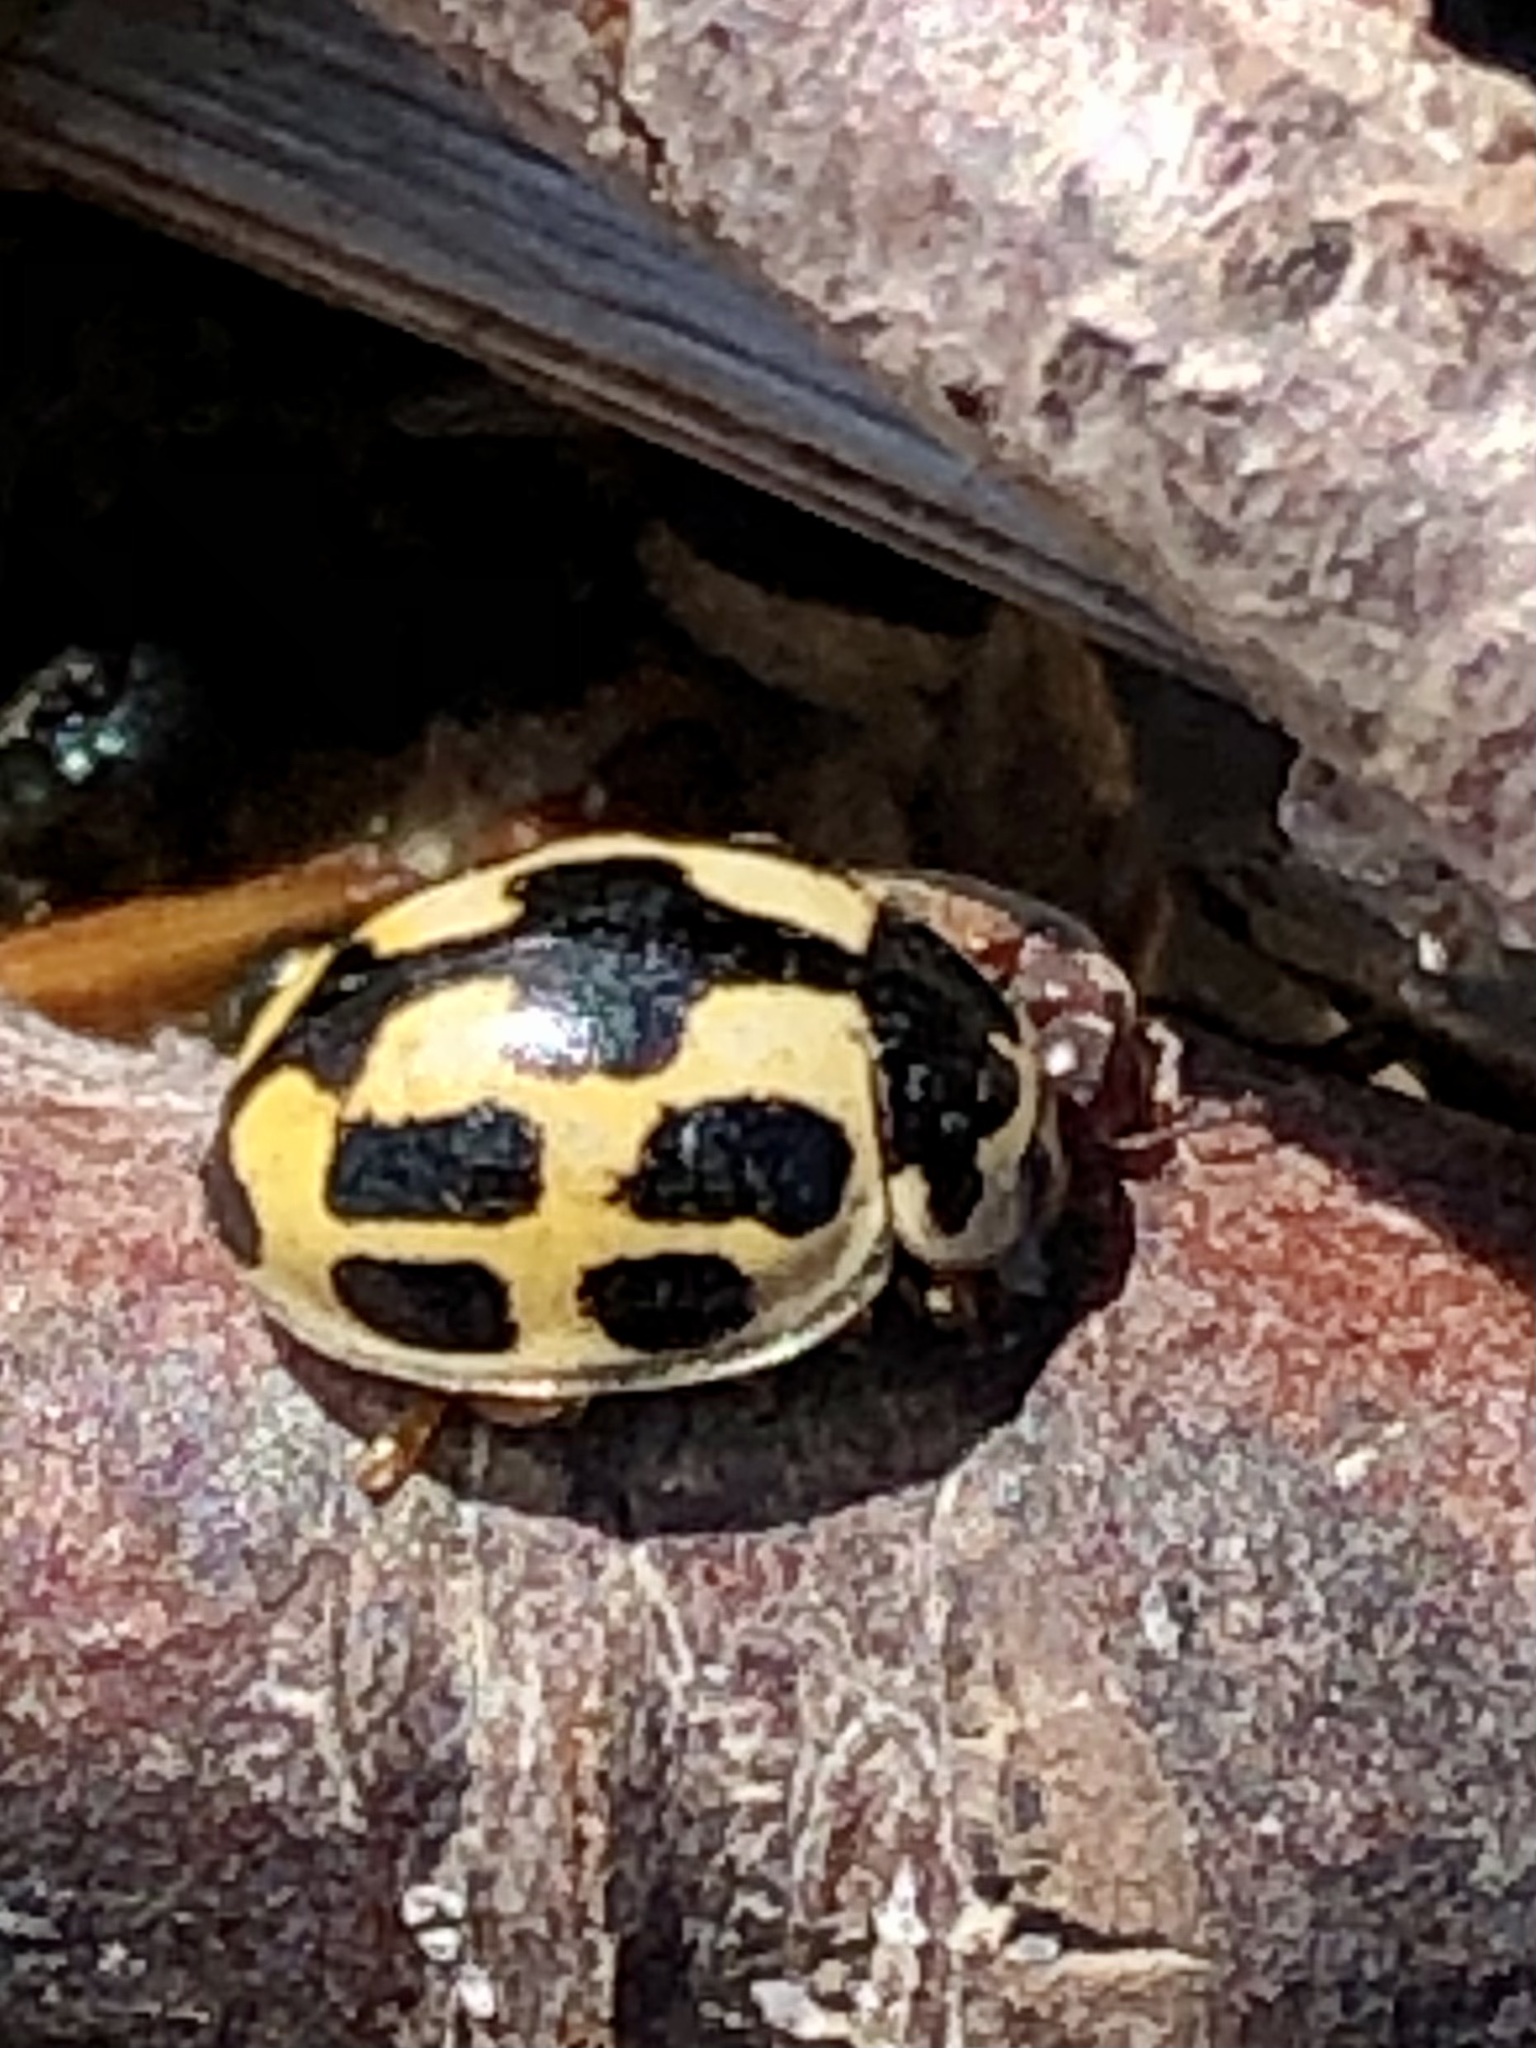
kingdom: Animalia
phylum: Arthropoda
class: Insecta
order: Coleoptera
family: Coccinellidae
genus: Propylaea
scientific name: Propylaea quatuordecimpunctata
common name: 14-spotted ladybird beetle
